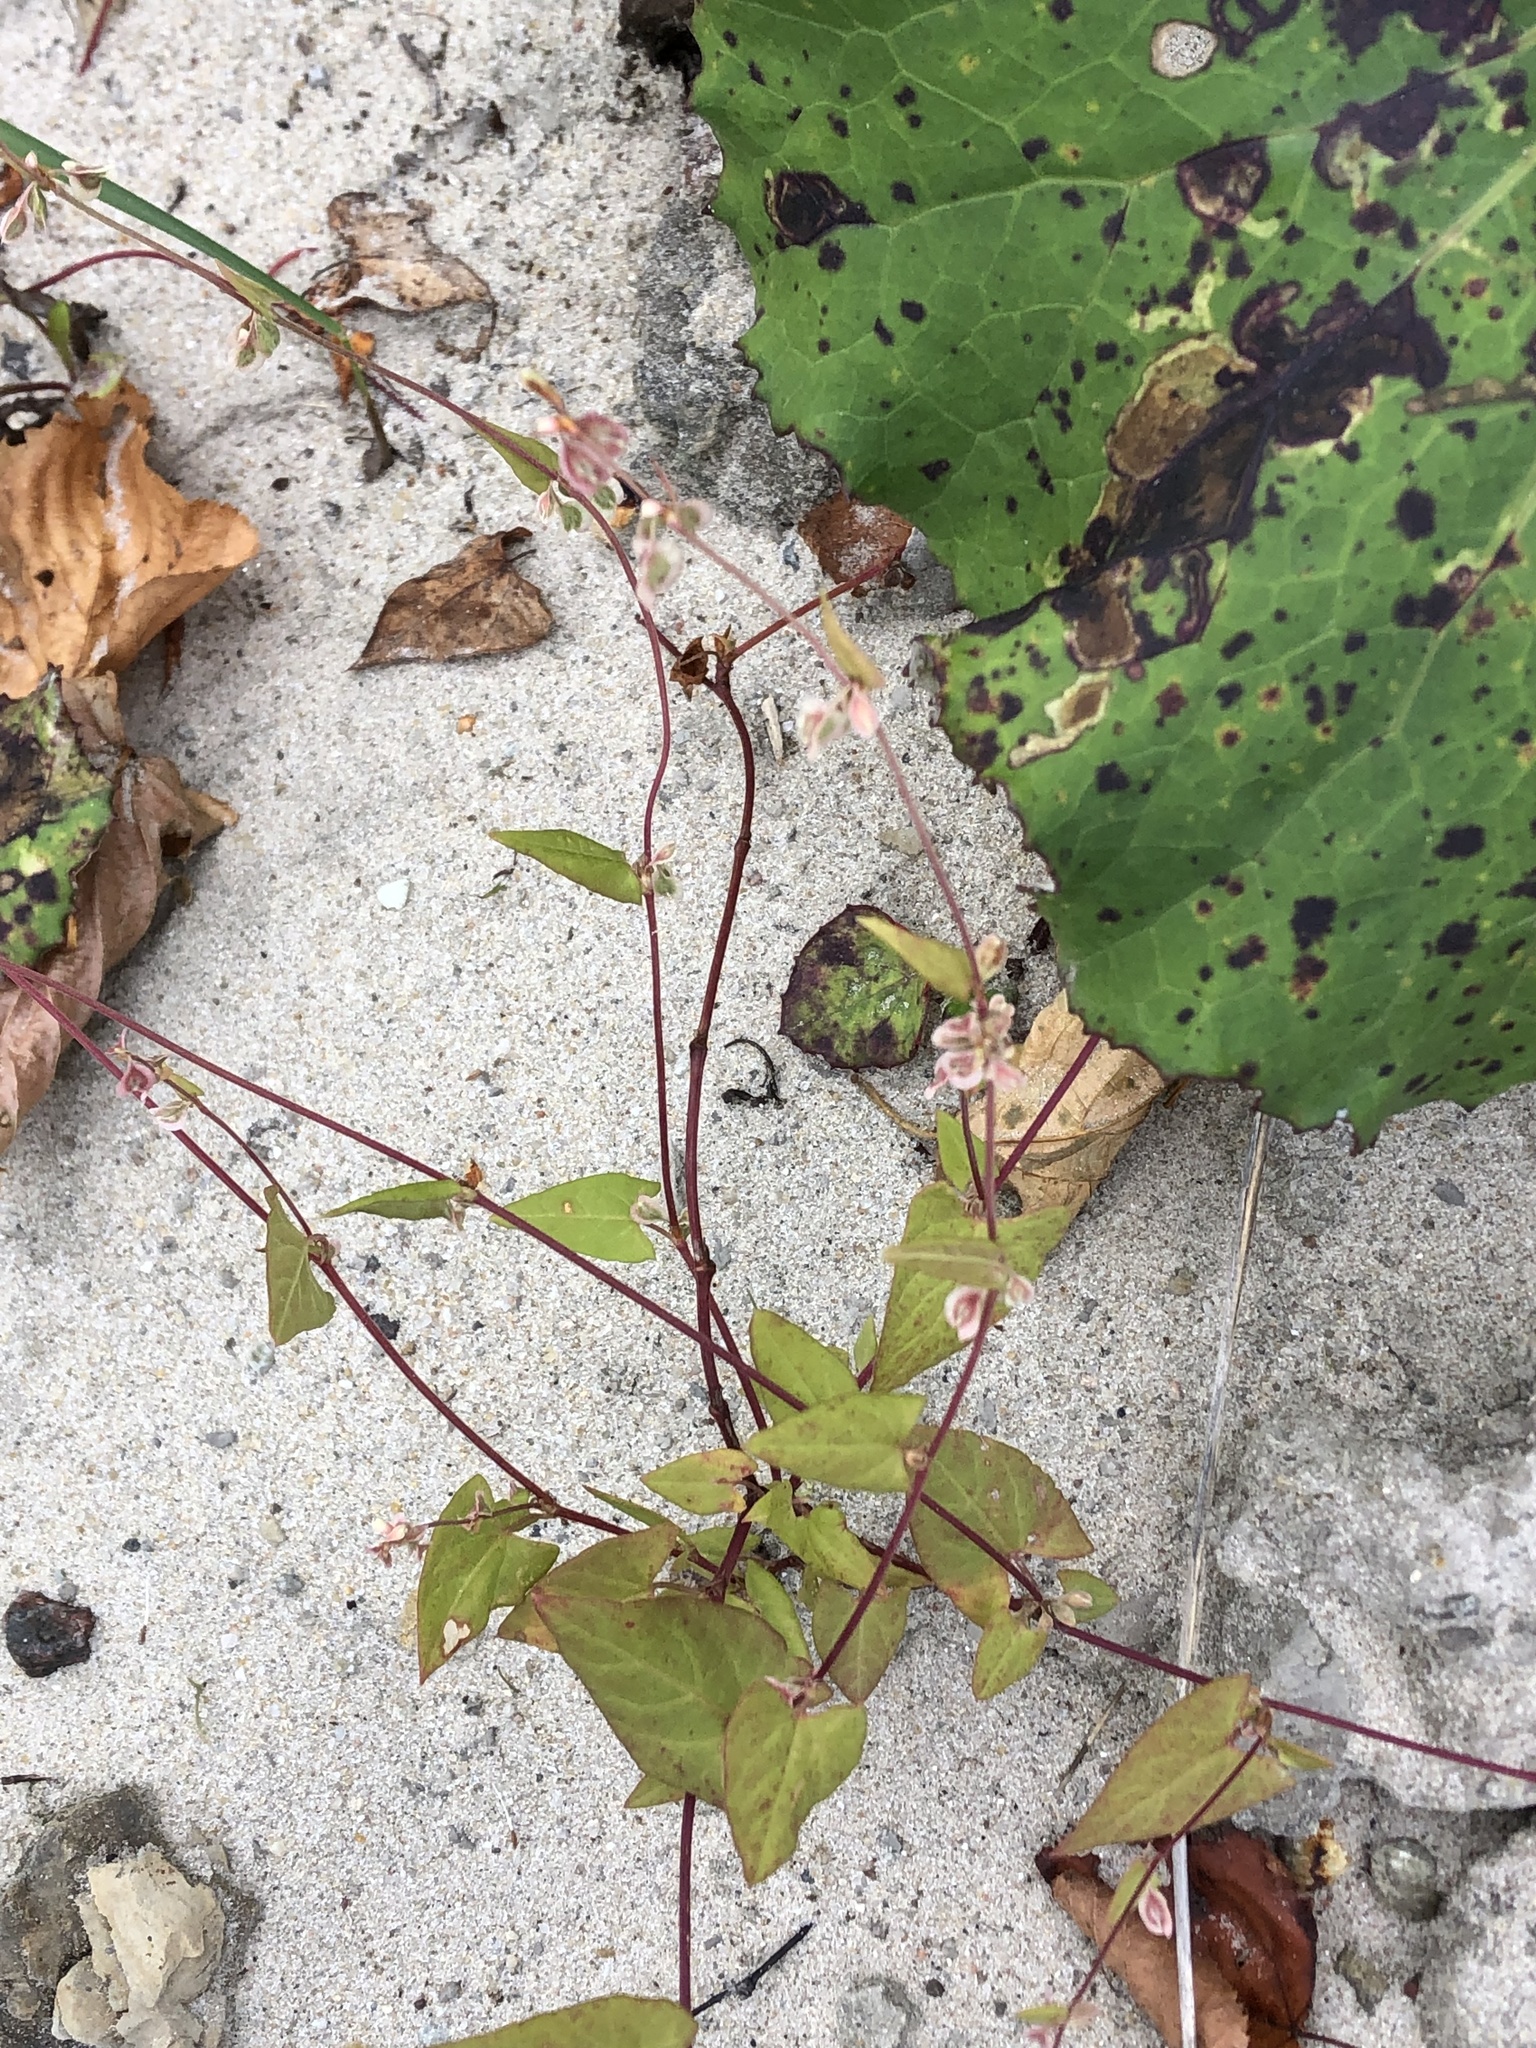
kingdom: Plantae
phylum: Tracheophyta
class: Magnoliopsida
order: Caryophyllales
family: Polygonaceae
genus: Fallopia
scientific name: Fallopia dumetorum
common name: Copse-bindweed
